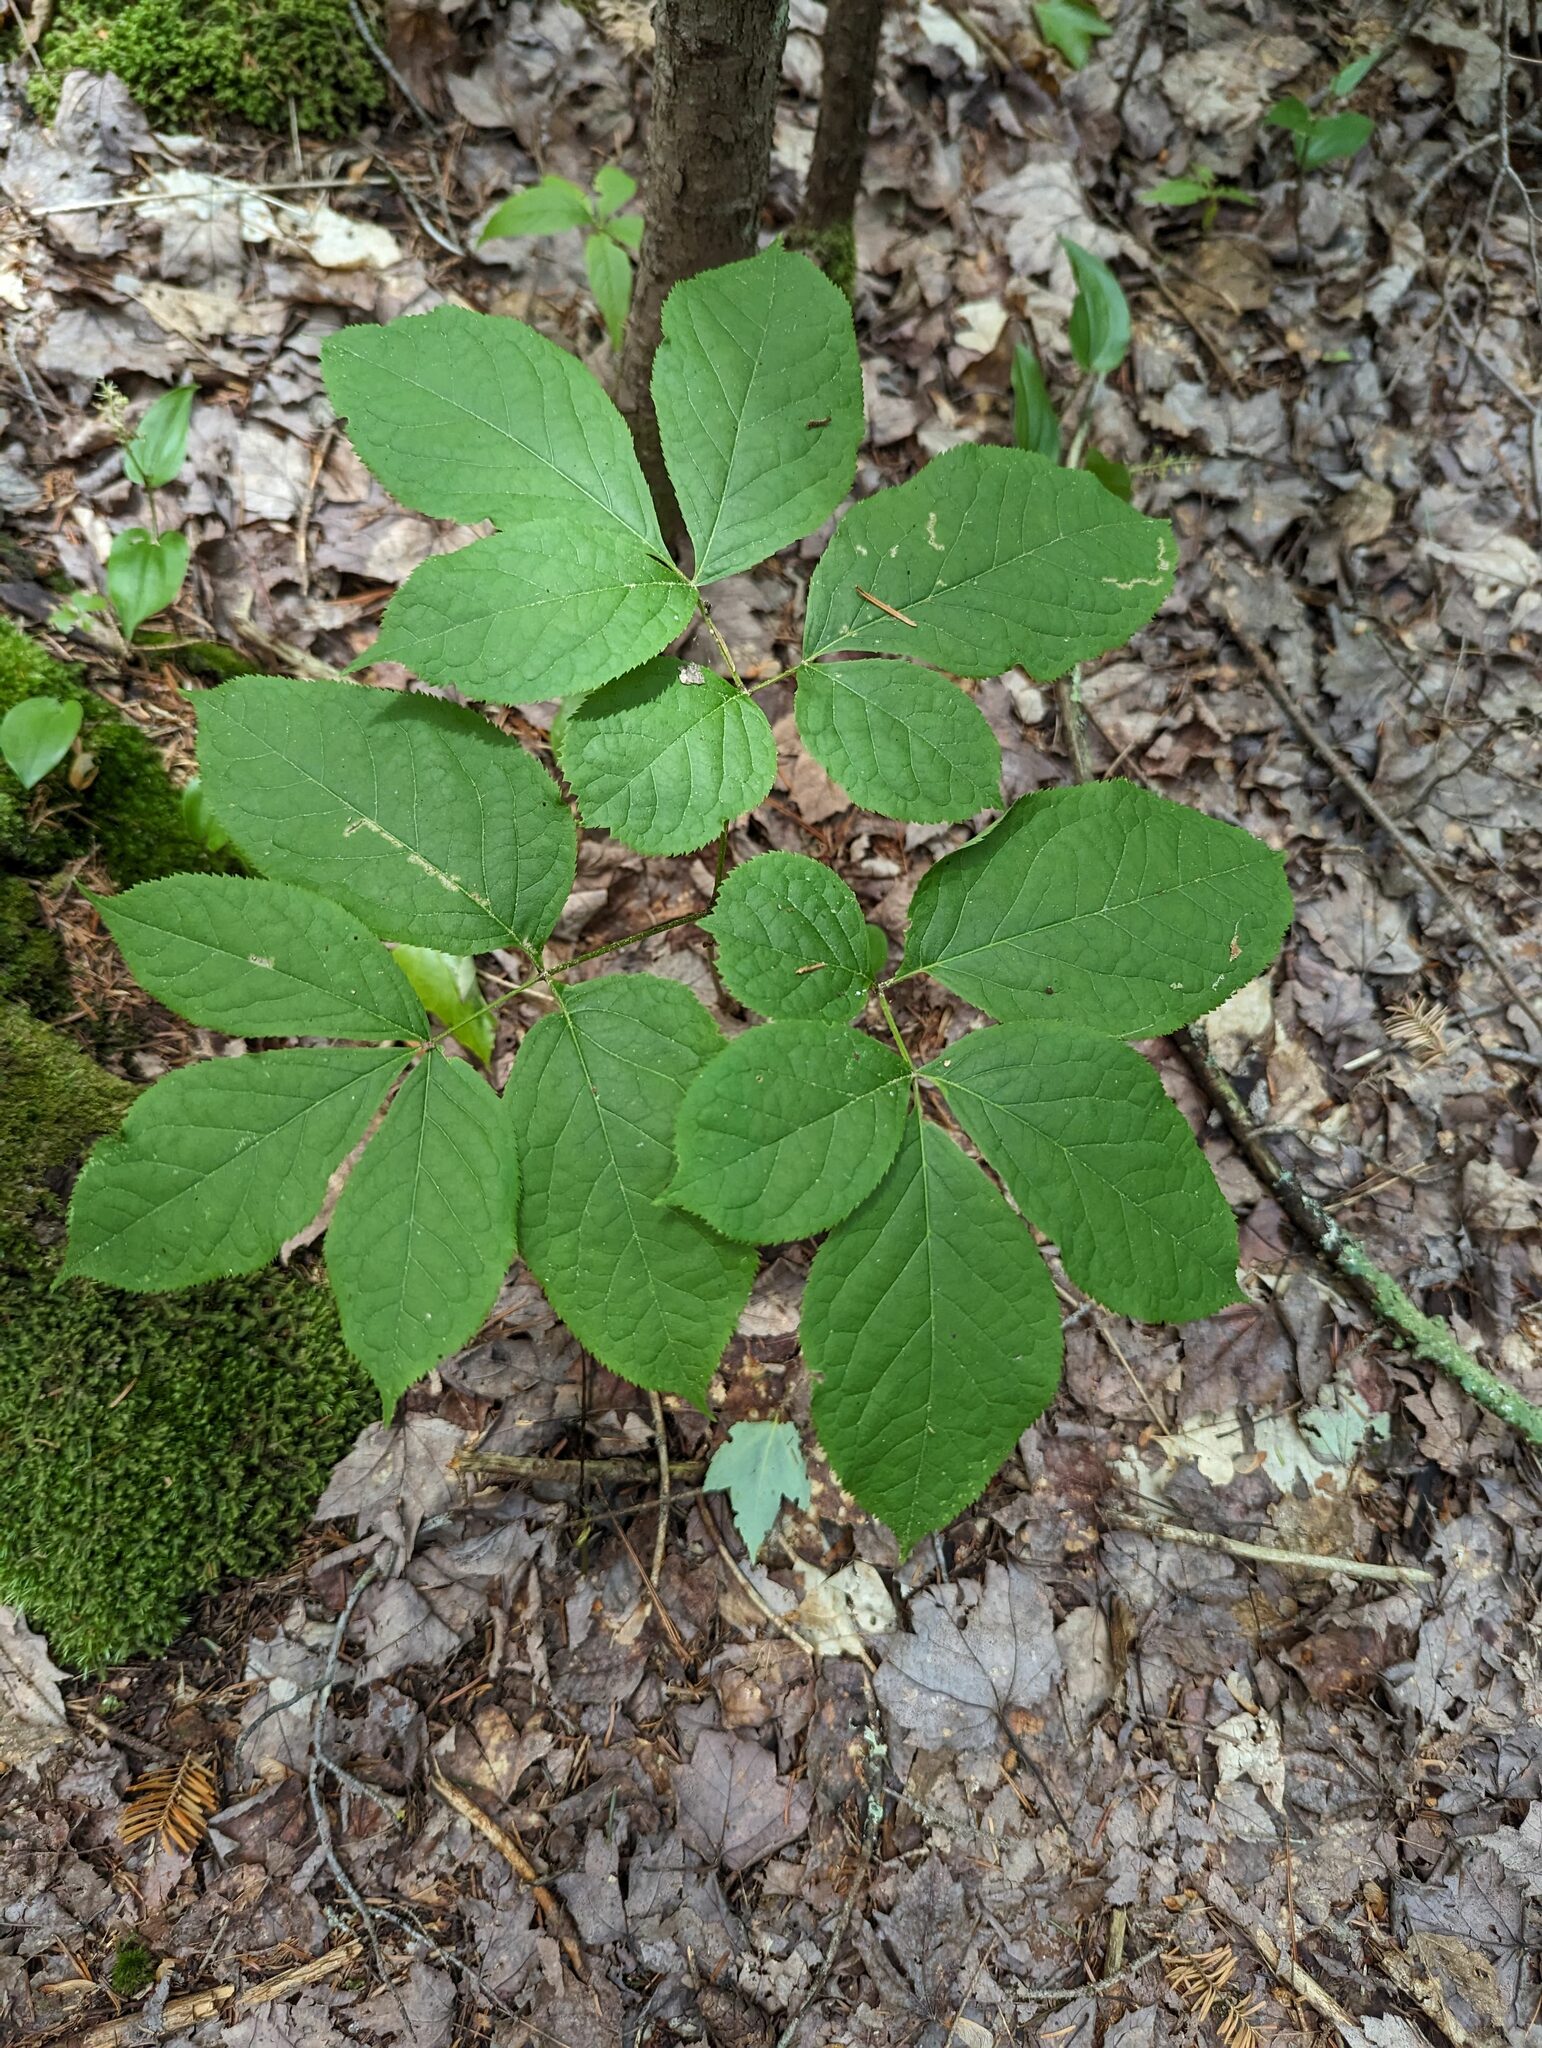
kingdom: Plantae
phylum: Tracheophyta
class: Magnoliopsida
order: Apiales
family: Araliaceae
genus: Aralia
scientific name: Aralia nudicaulis
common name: Wild sarsaparilla
